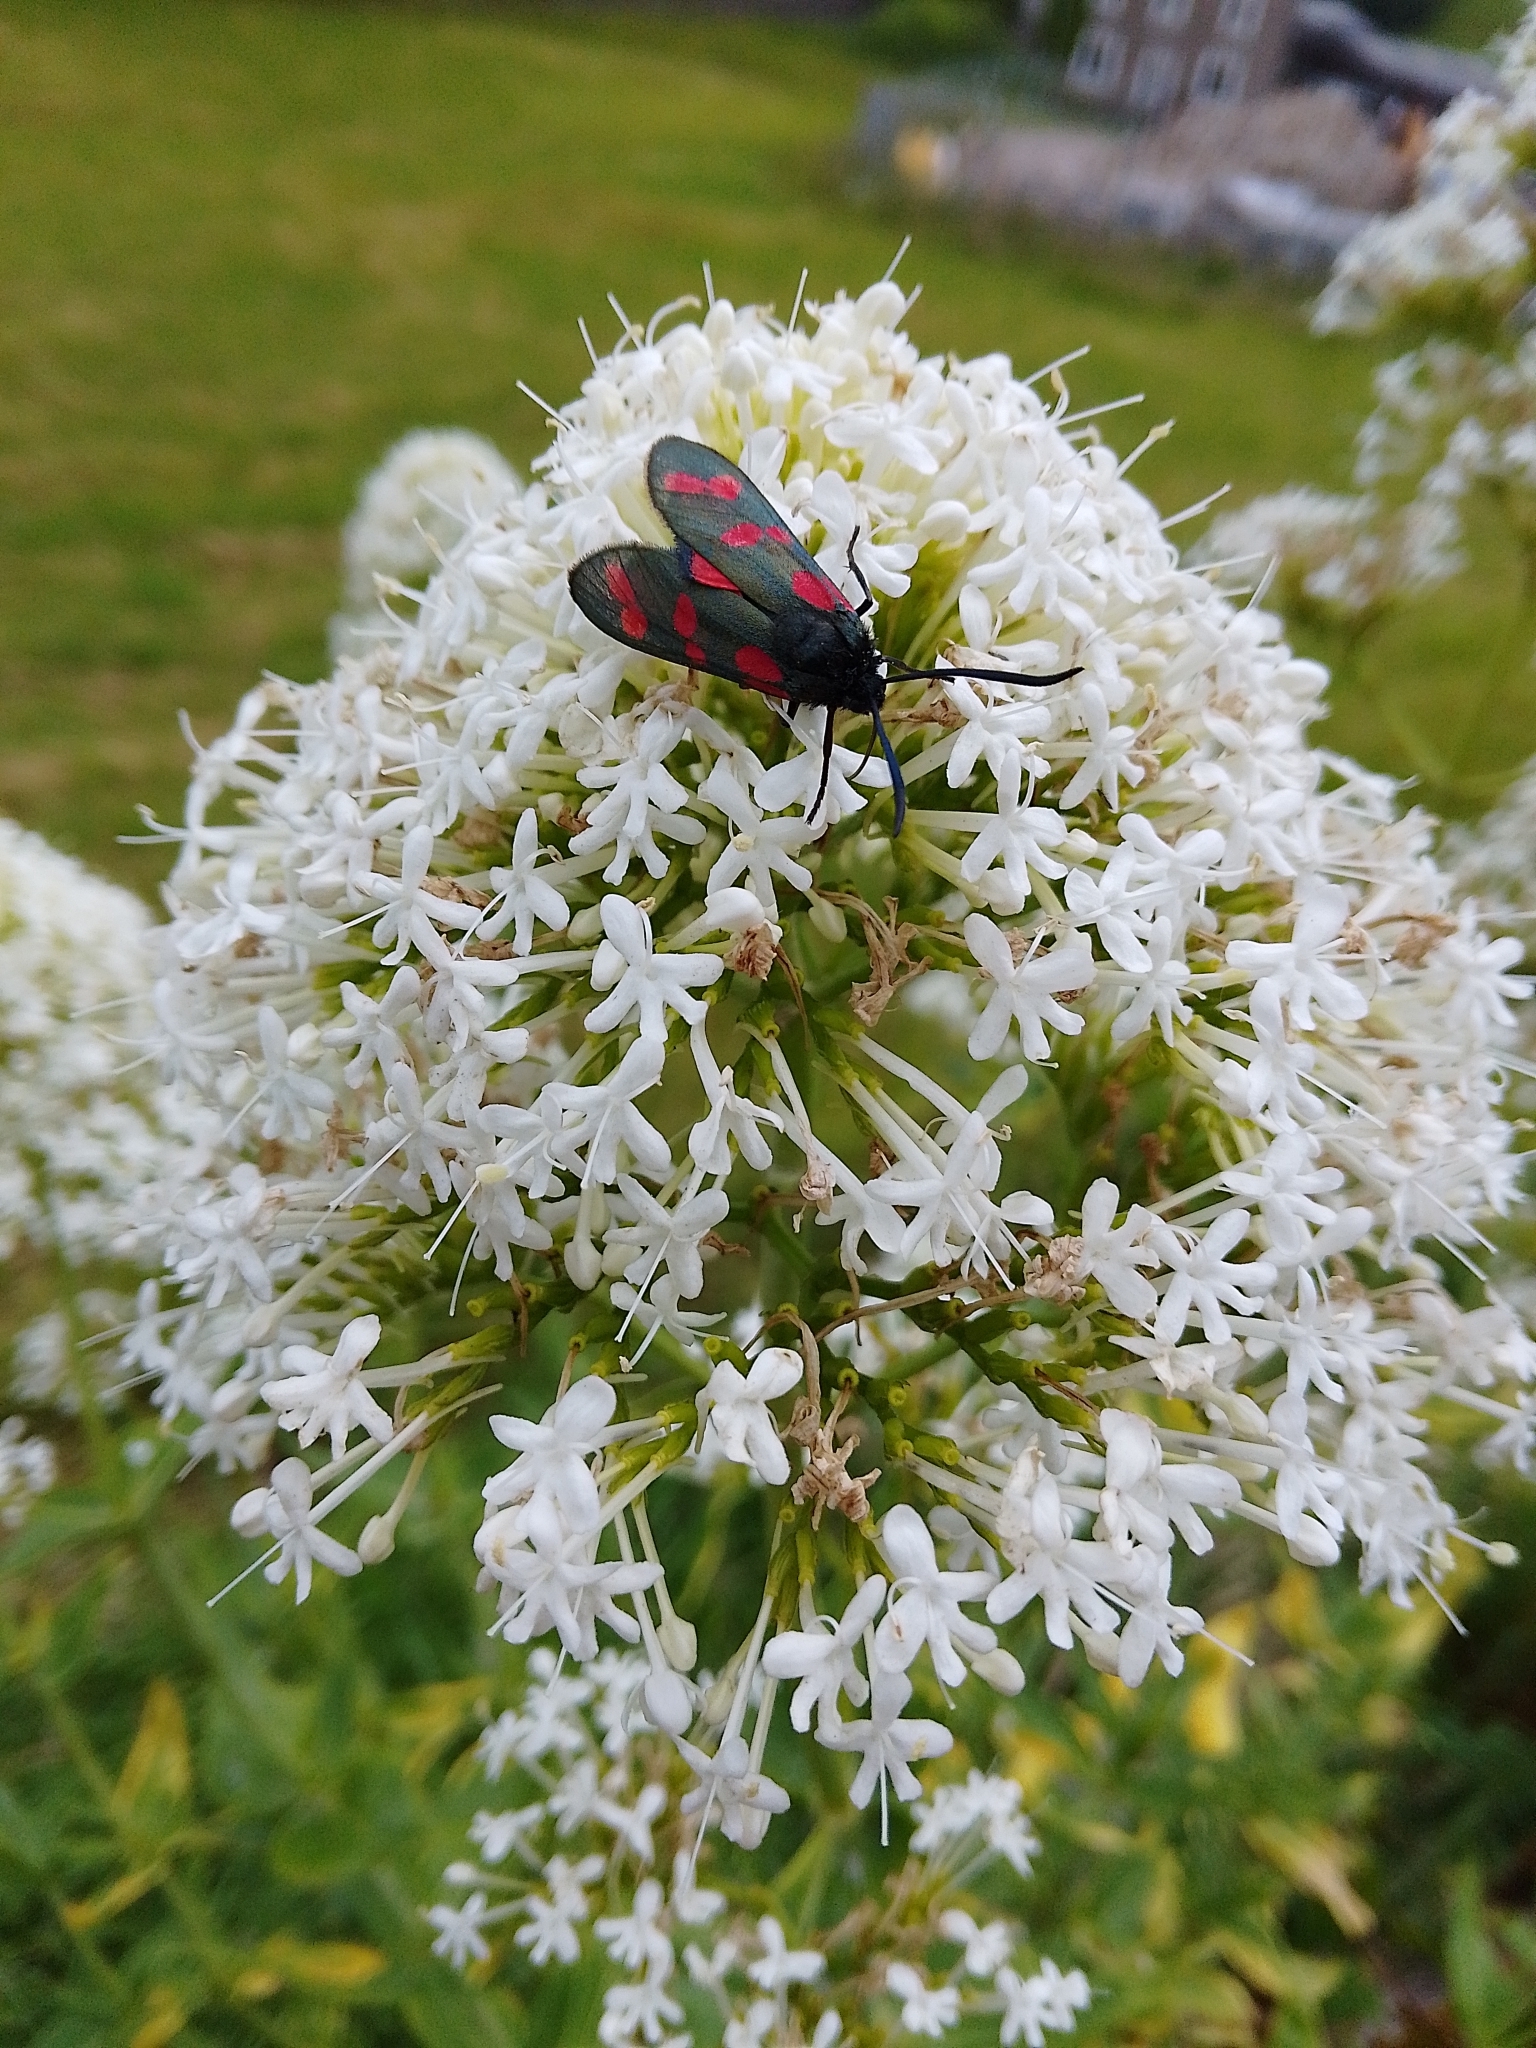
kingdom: Animalia
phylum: Arthropoda
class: Insecta
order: Lepidoptera
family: Zygaenidae
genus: Zygaena
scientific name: Zygaena filipendulae
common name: Six-spot burnet
